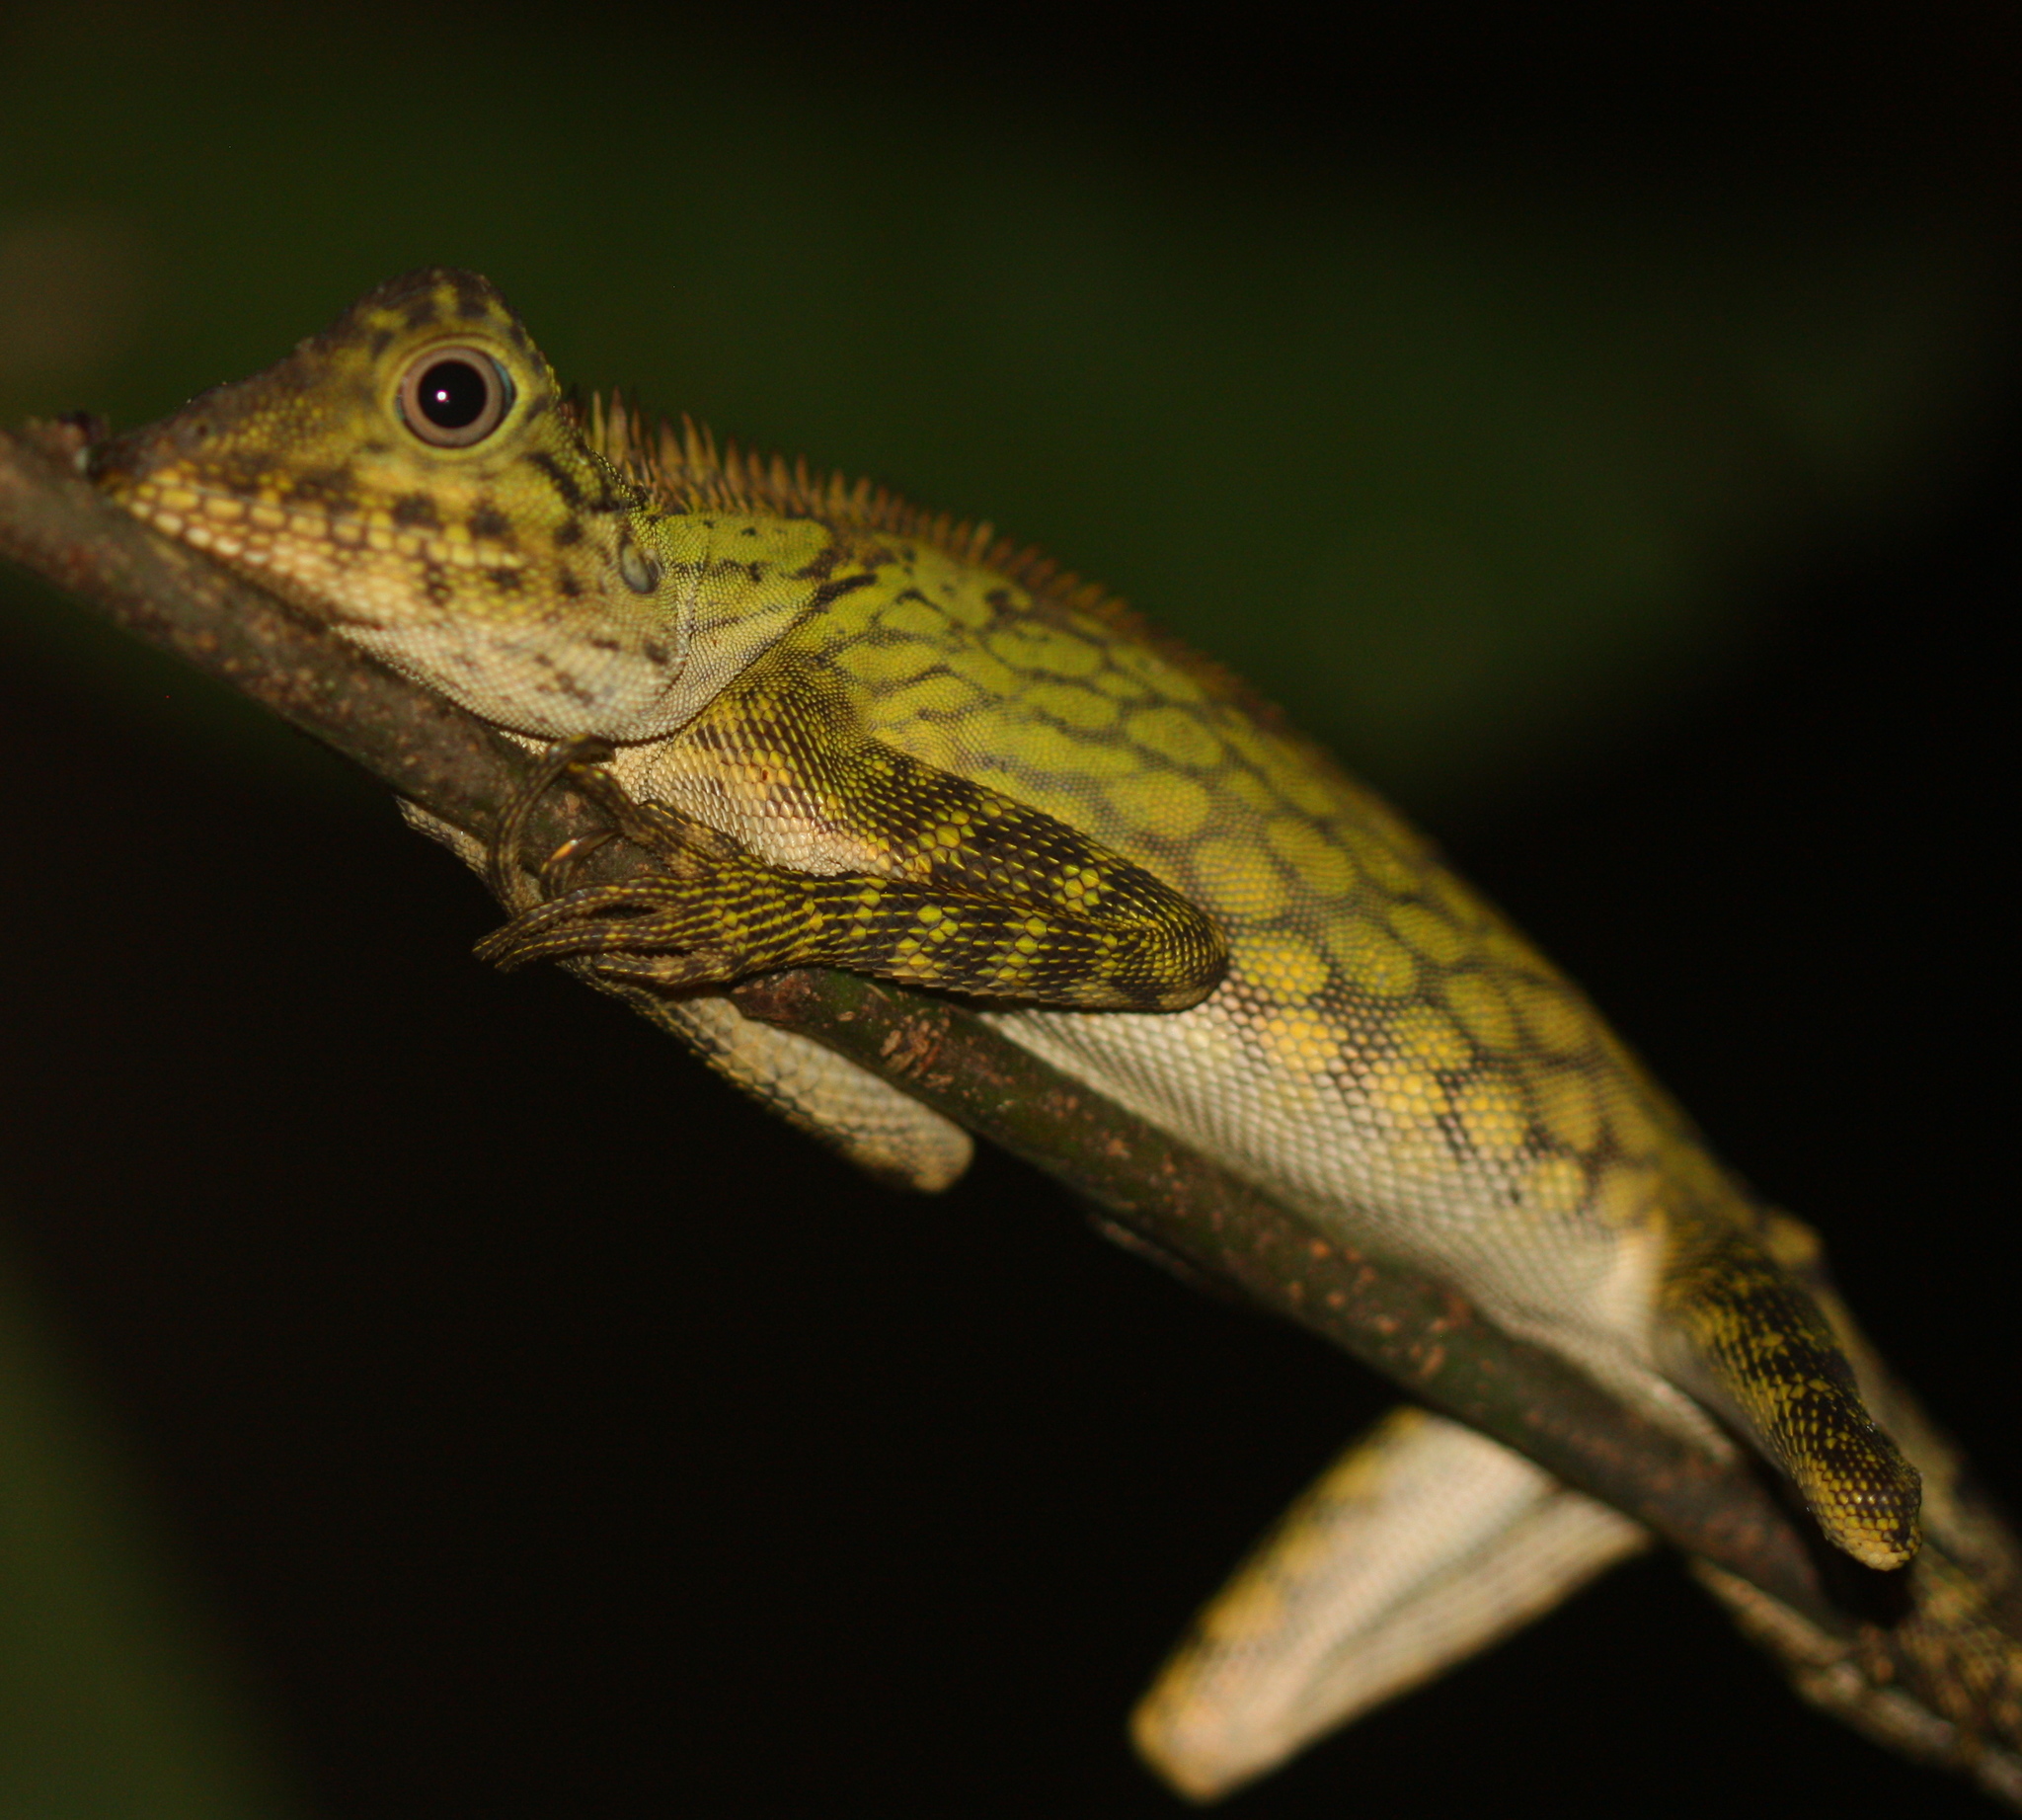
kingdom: Animalia
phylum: Chordata
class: Squamata
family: Agamidae
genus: Gonocephalus
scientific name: Gonocephalus bornensis
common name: Borneo forest dragon
